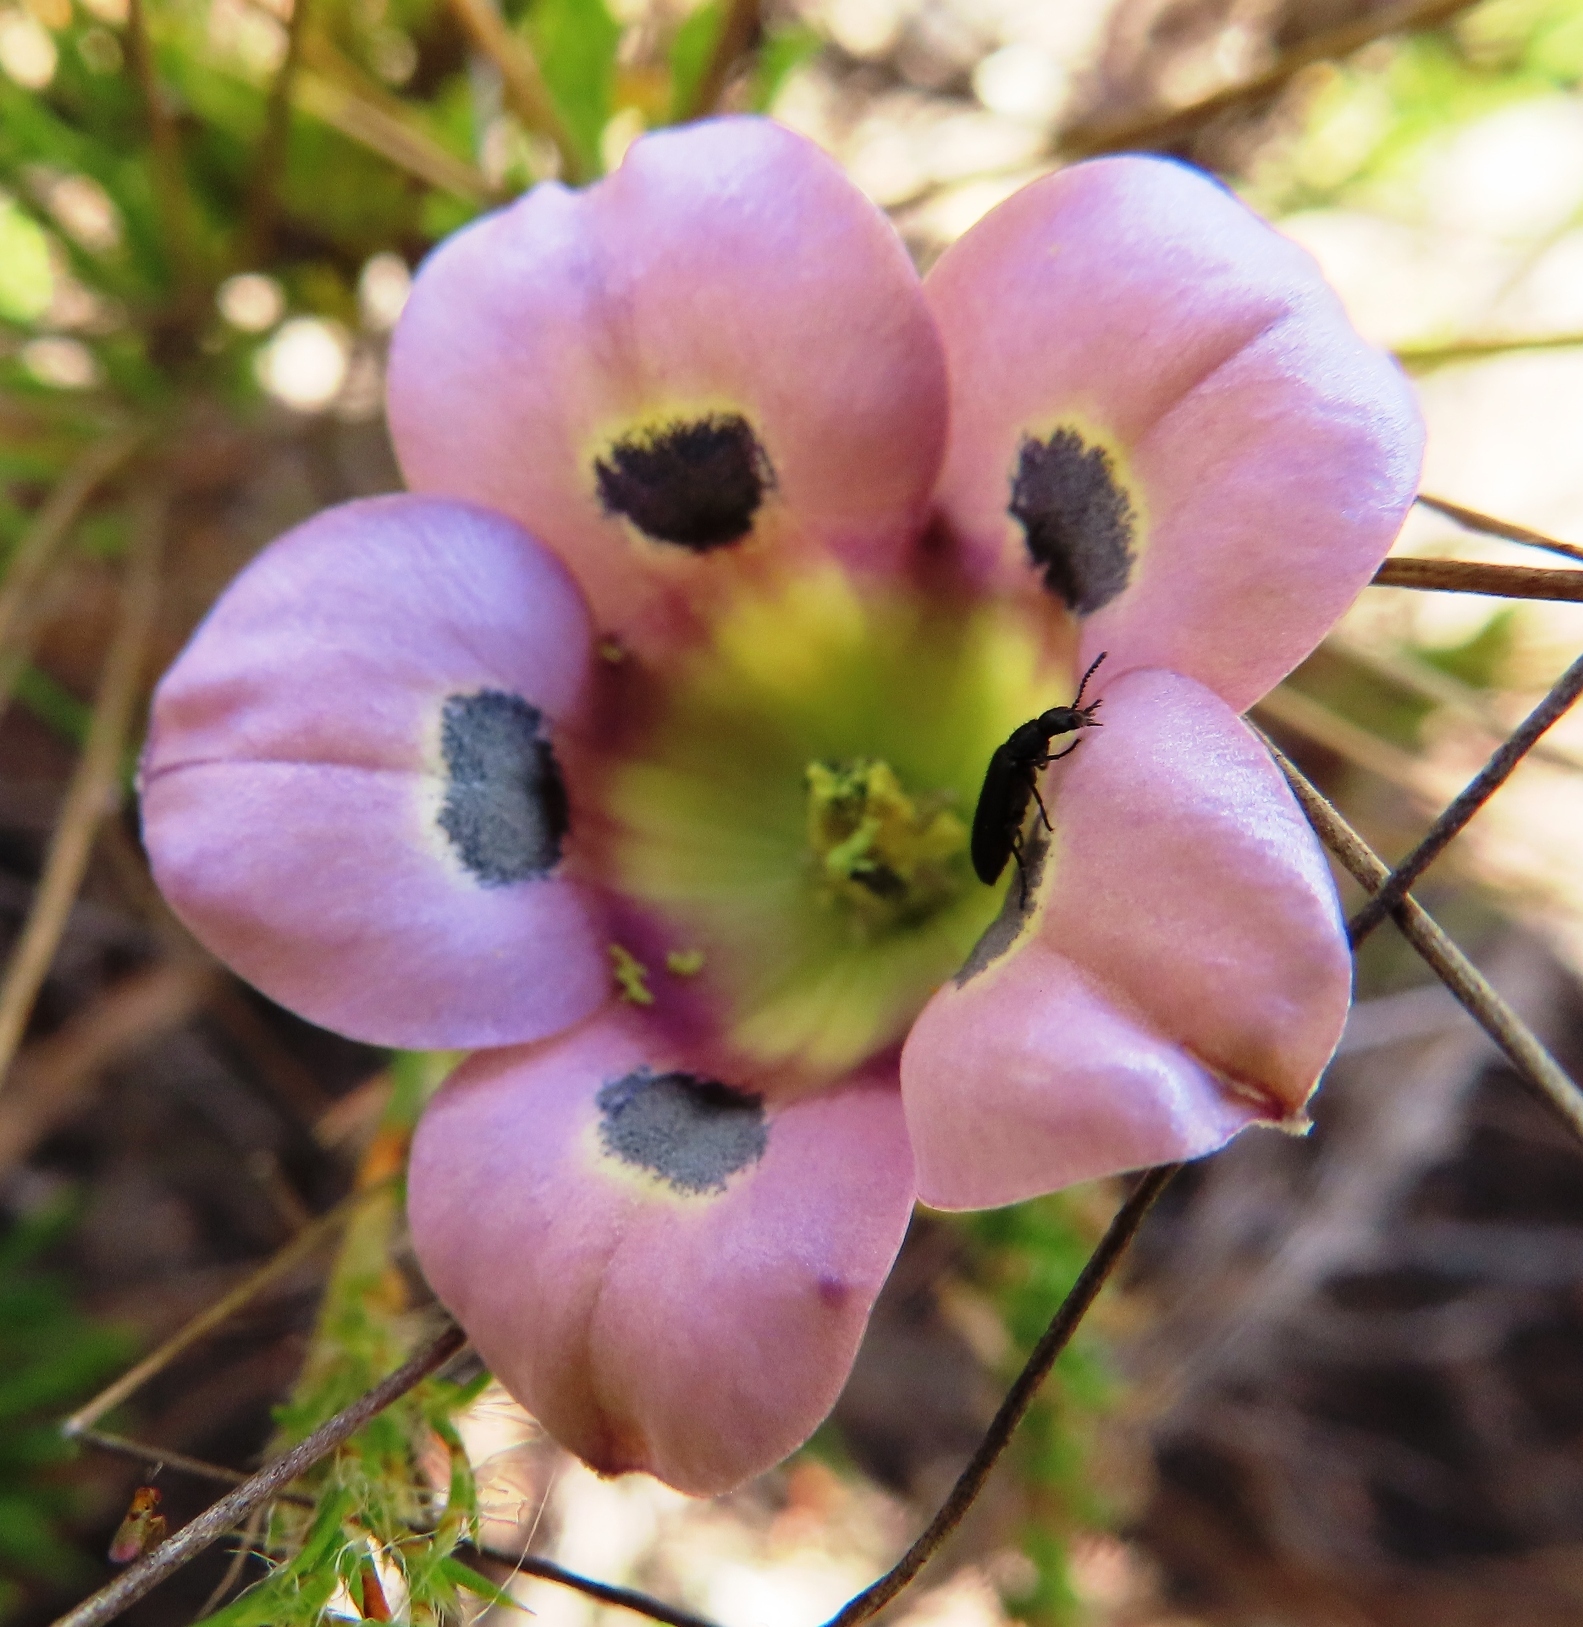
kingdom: Plantae
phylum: Tracheophyta
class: Magnoliopsida
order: Asterales
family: Campanulaceae
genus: Roella
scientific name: Roella incurva
